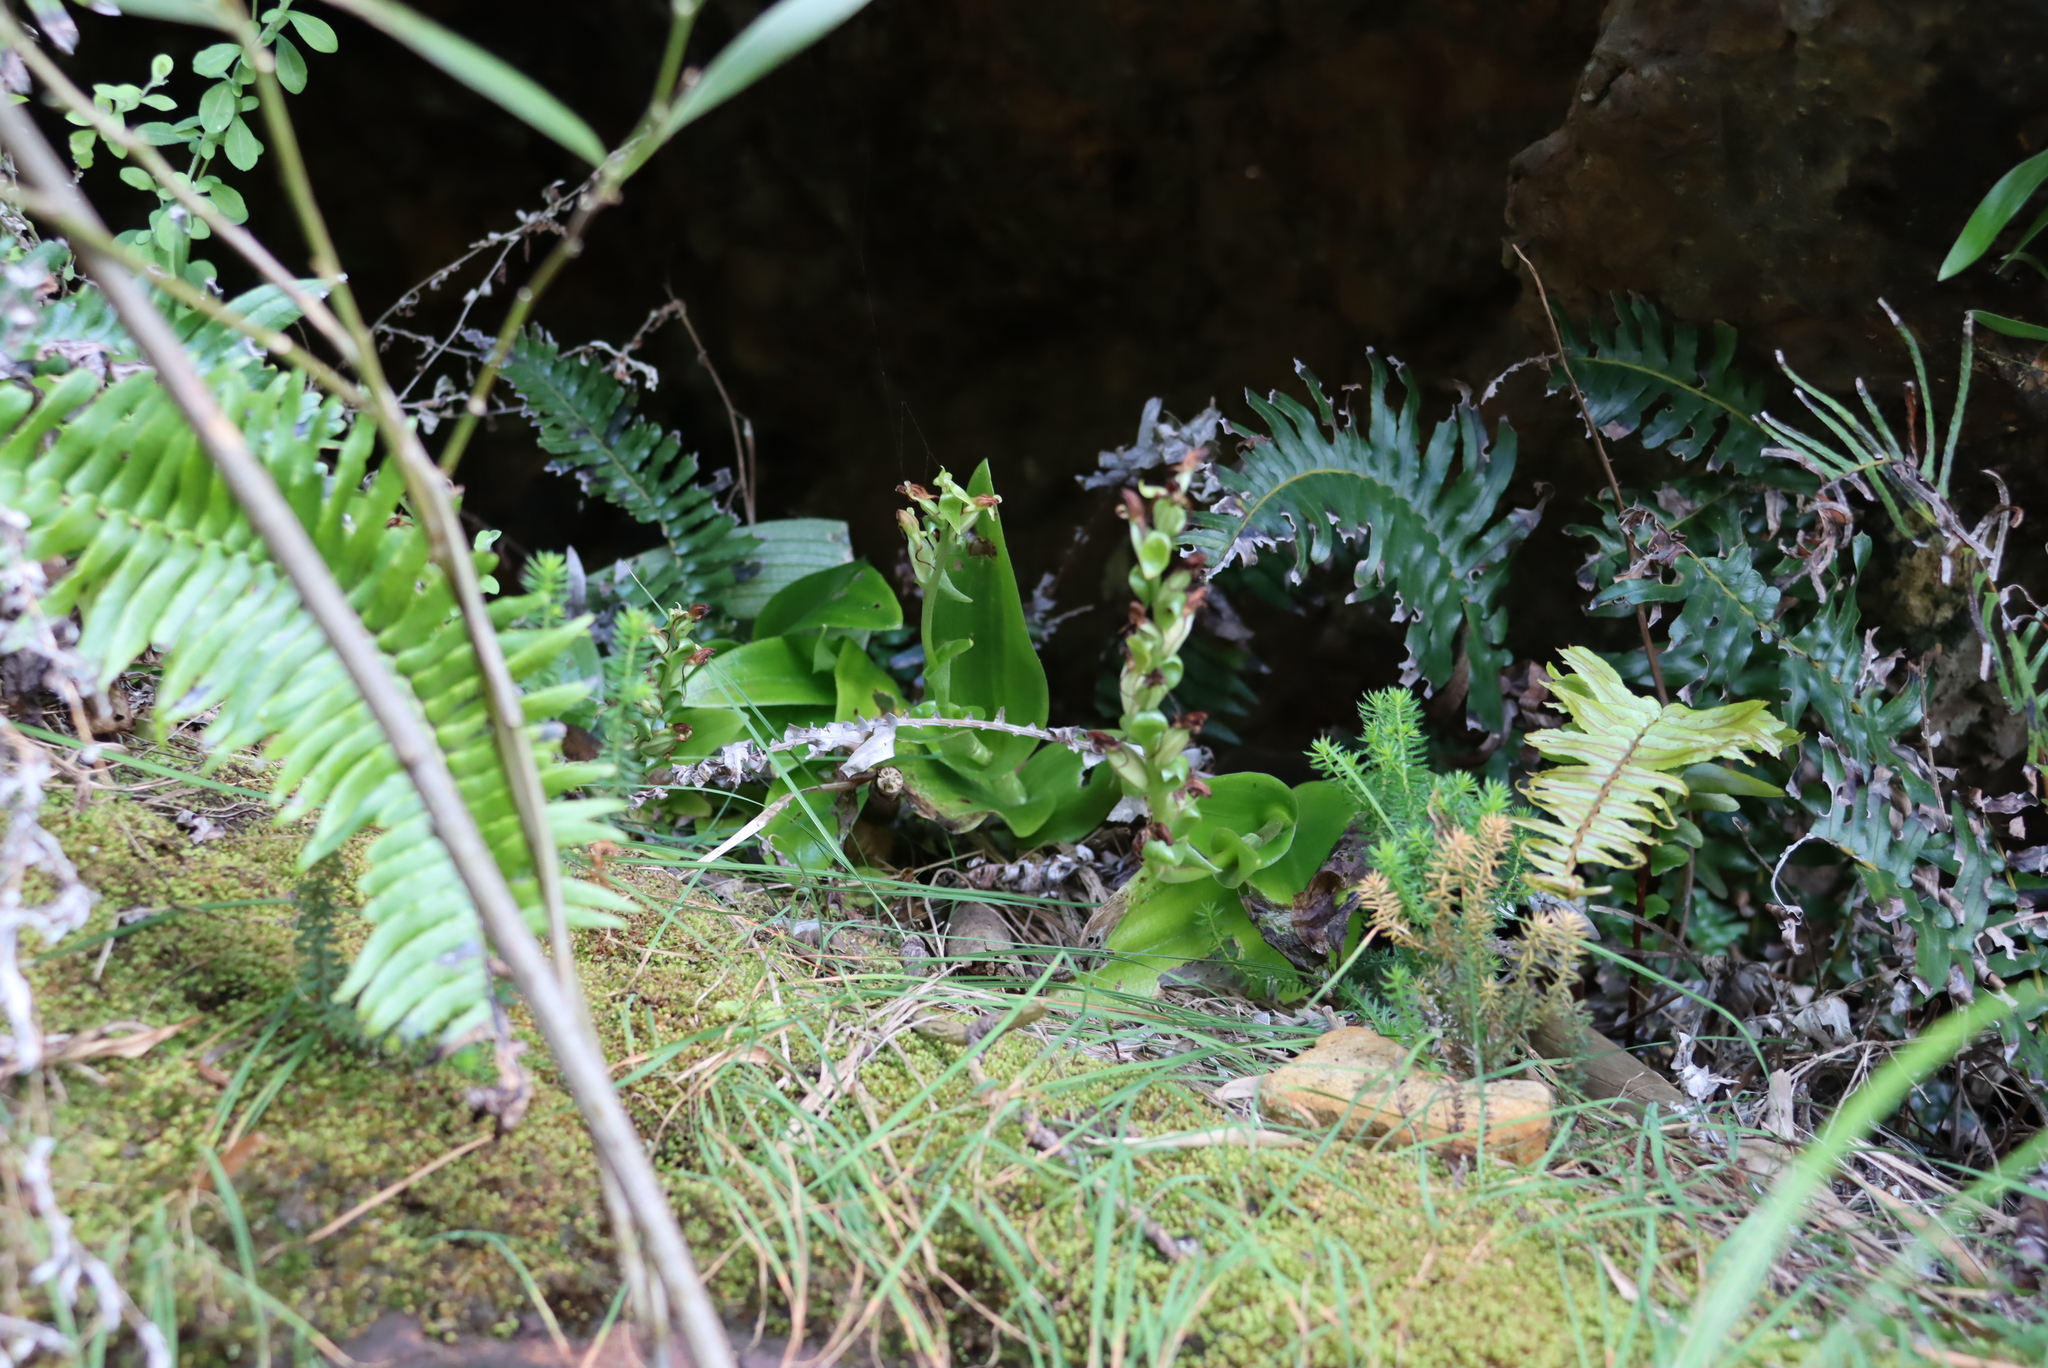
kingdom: Plantae
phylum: Tracheophyta
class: Liliopsida
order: Asparagales
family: Orchidaceae
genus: Satyrium
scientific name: Satyrium odorum
